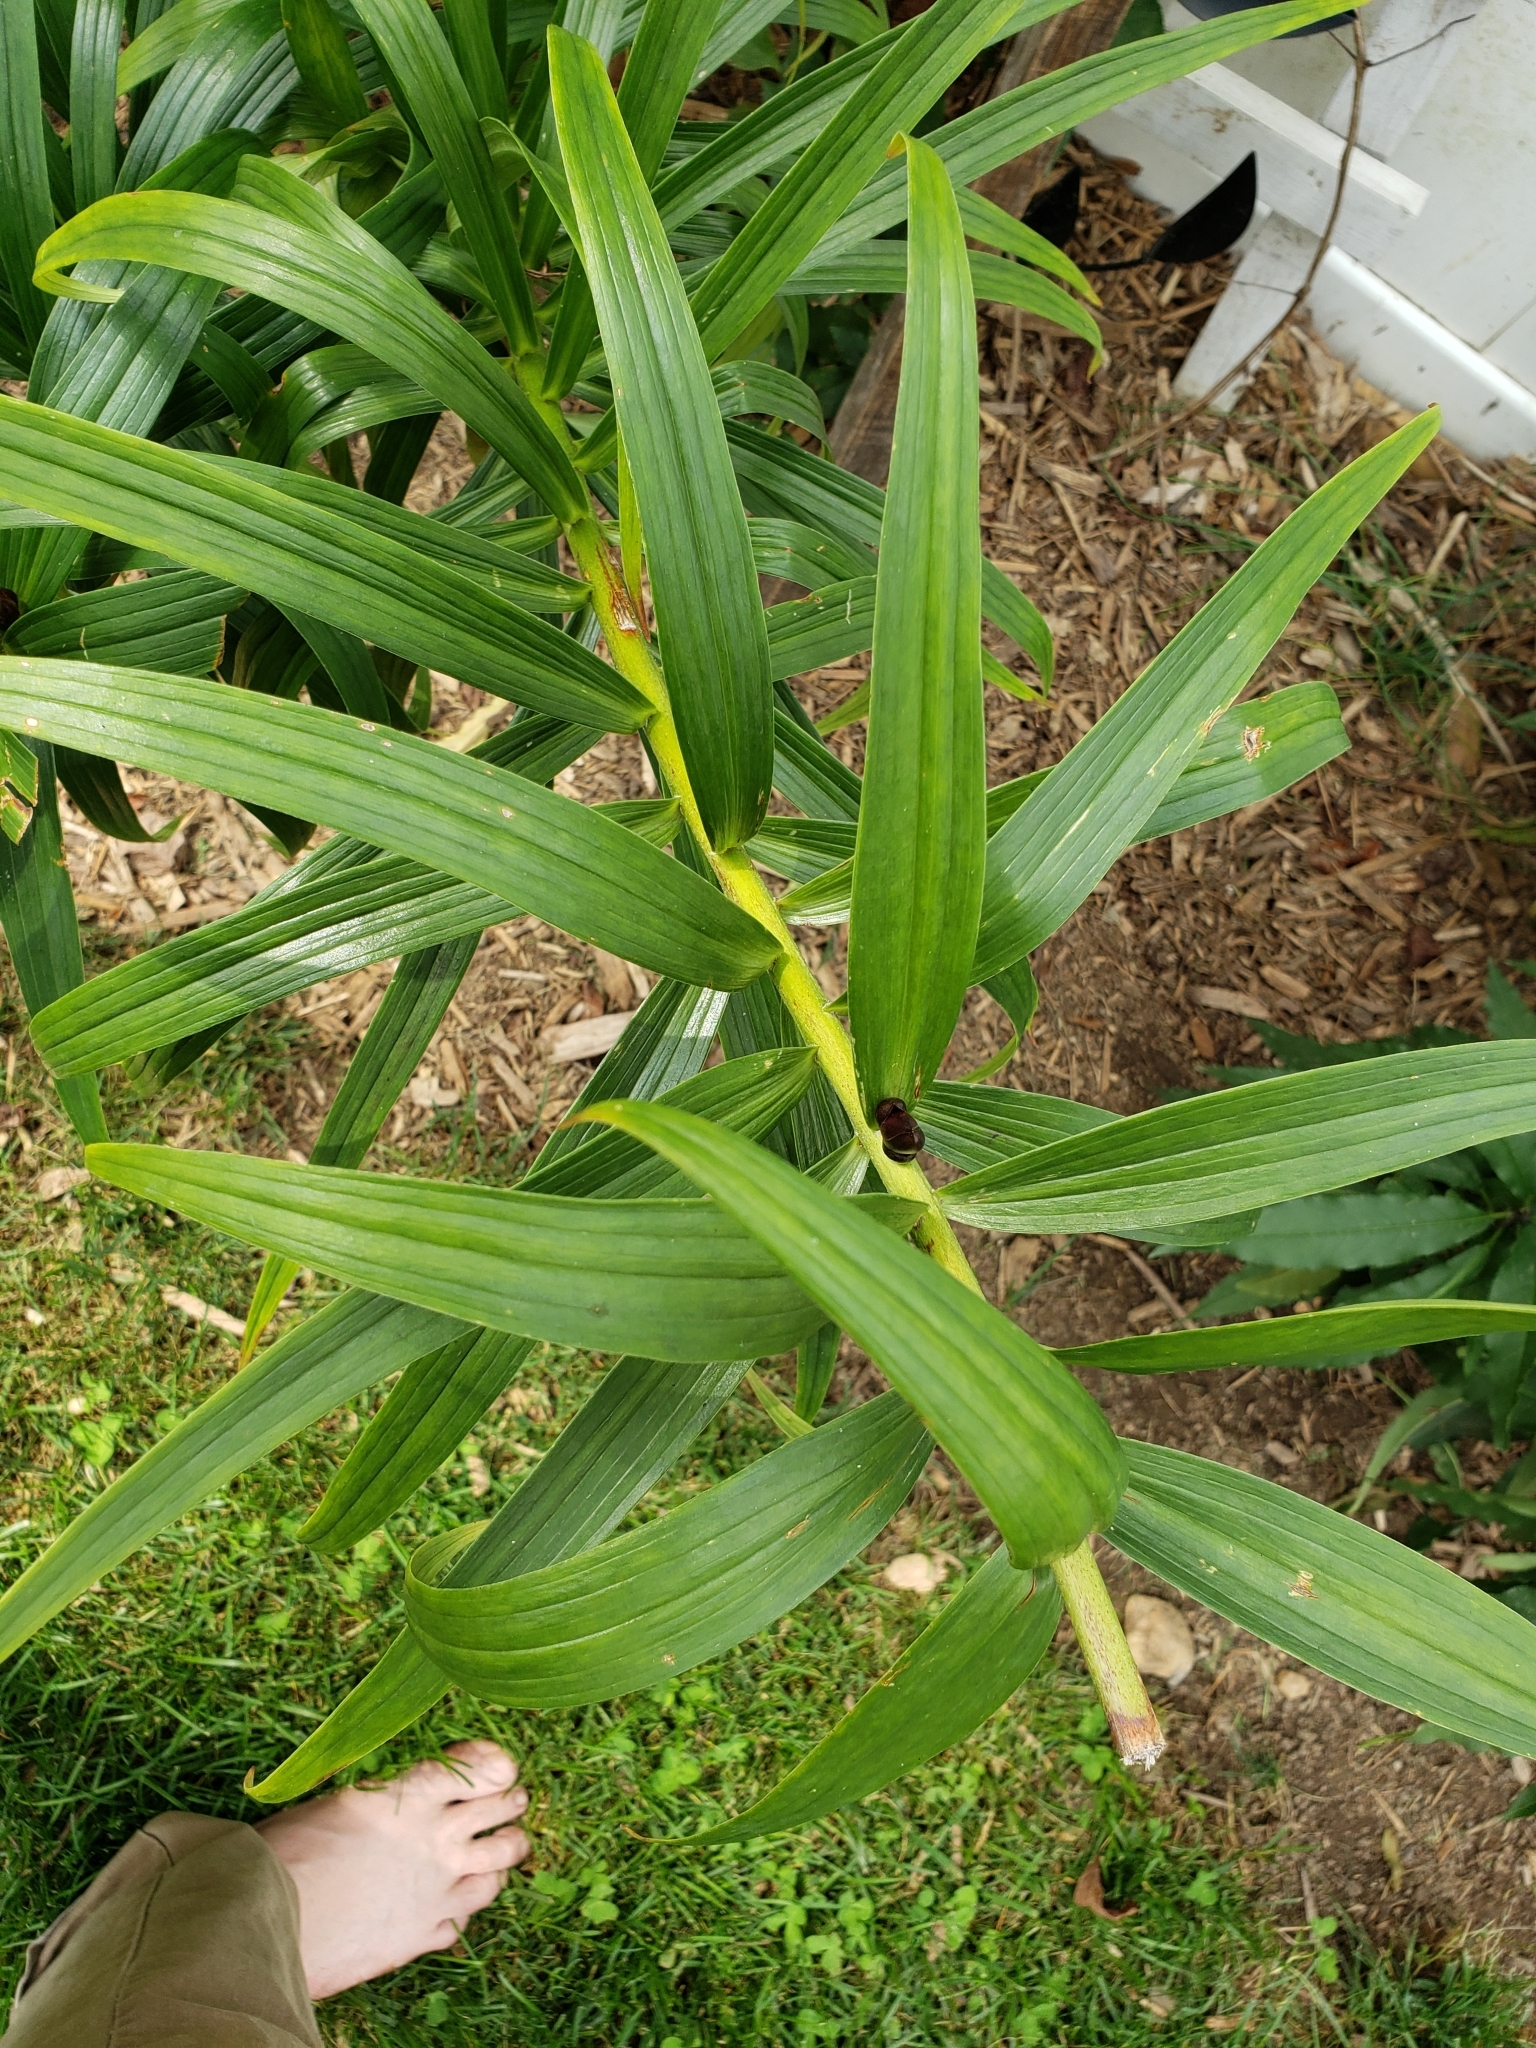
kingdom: Plantae
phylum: Tracheophyta
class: Liliopsida
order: Liliales
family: Liliaceae
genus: Lilium
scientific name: Lilium lancifolium
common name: Tiger lily
